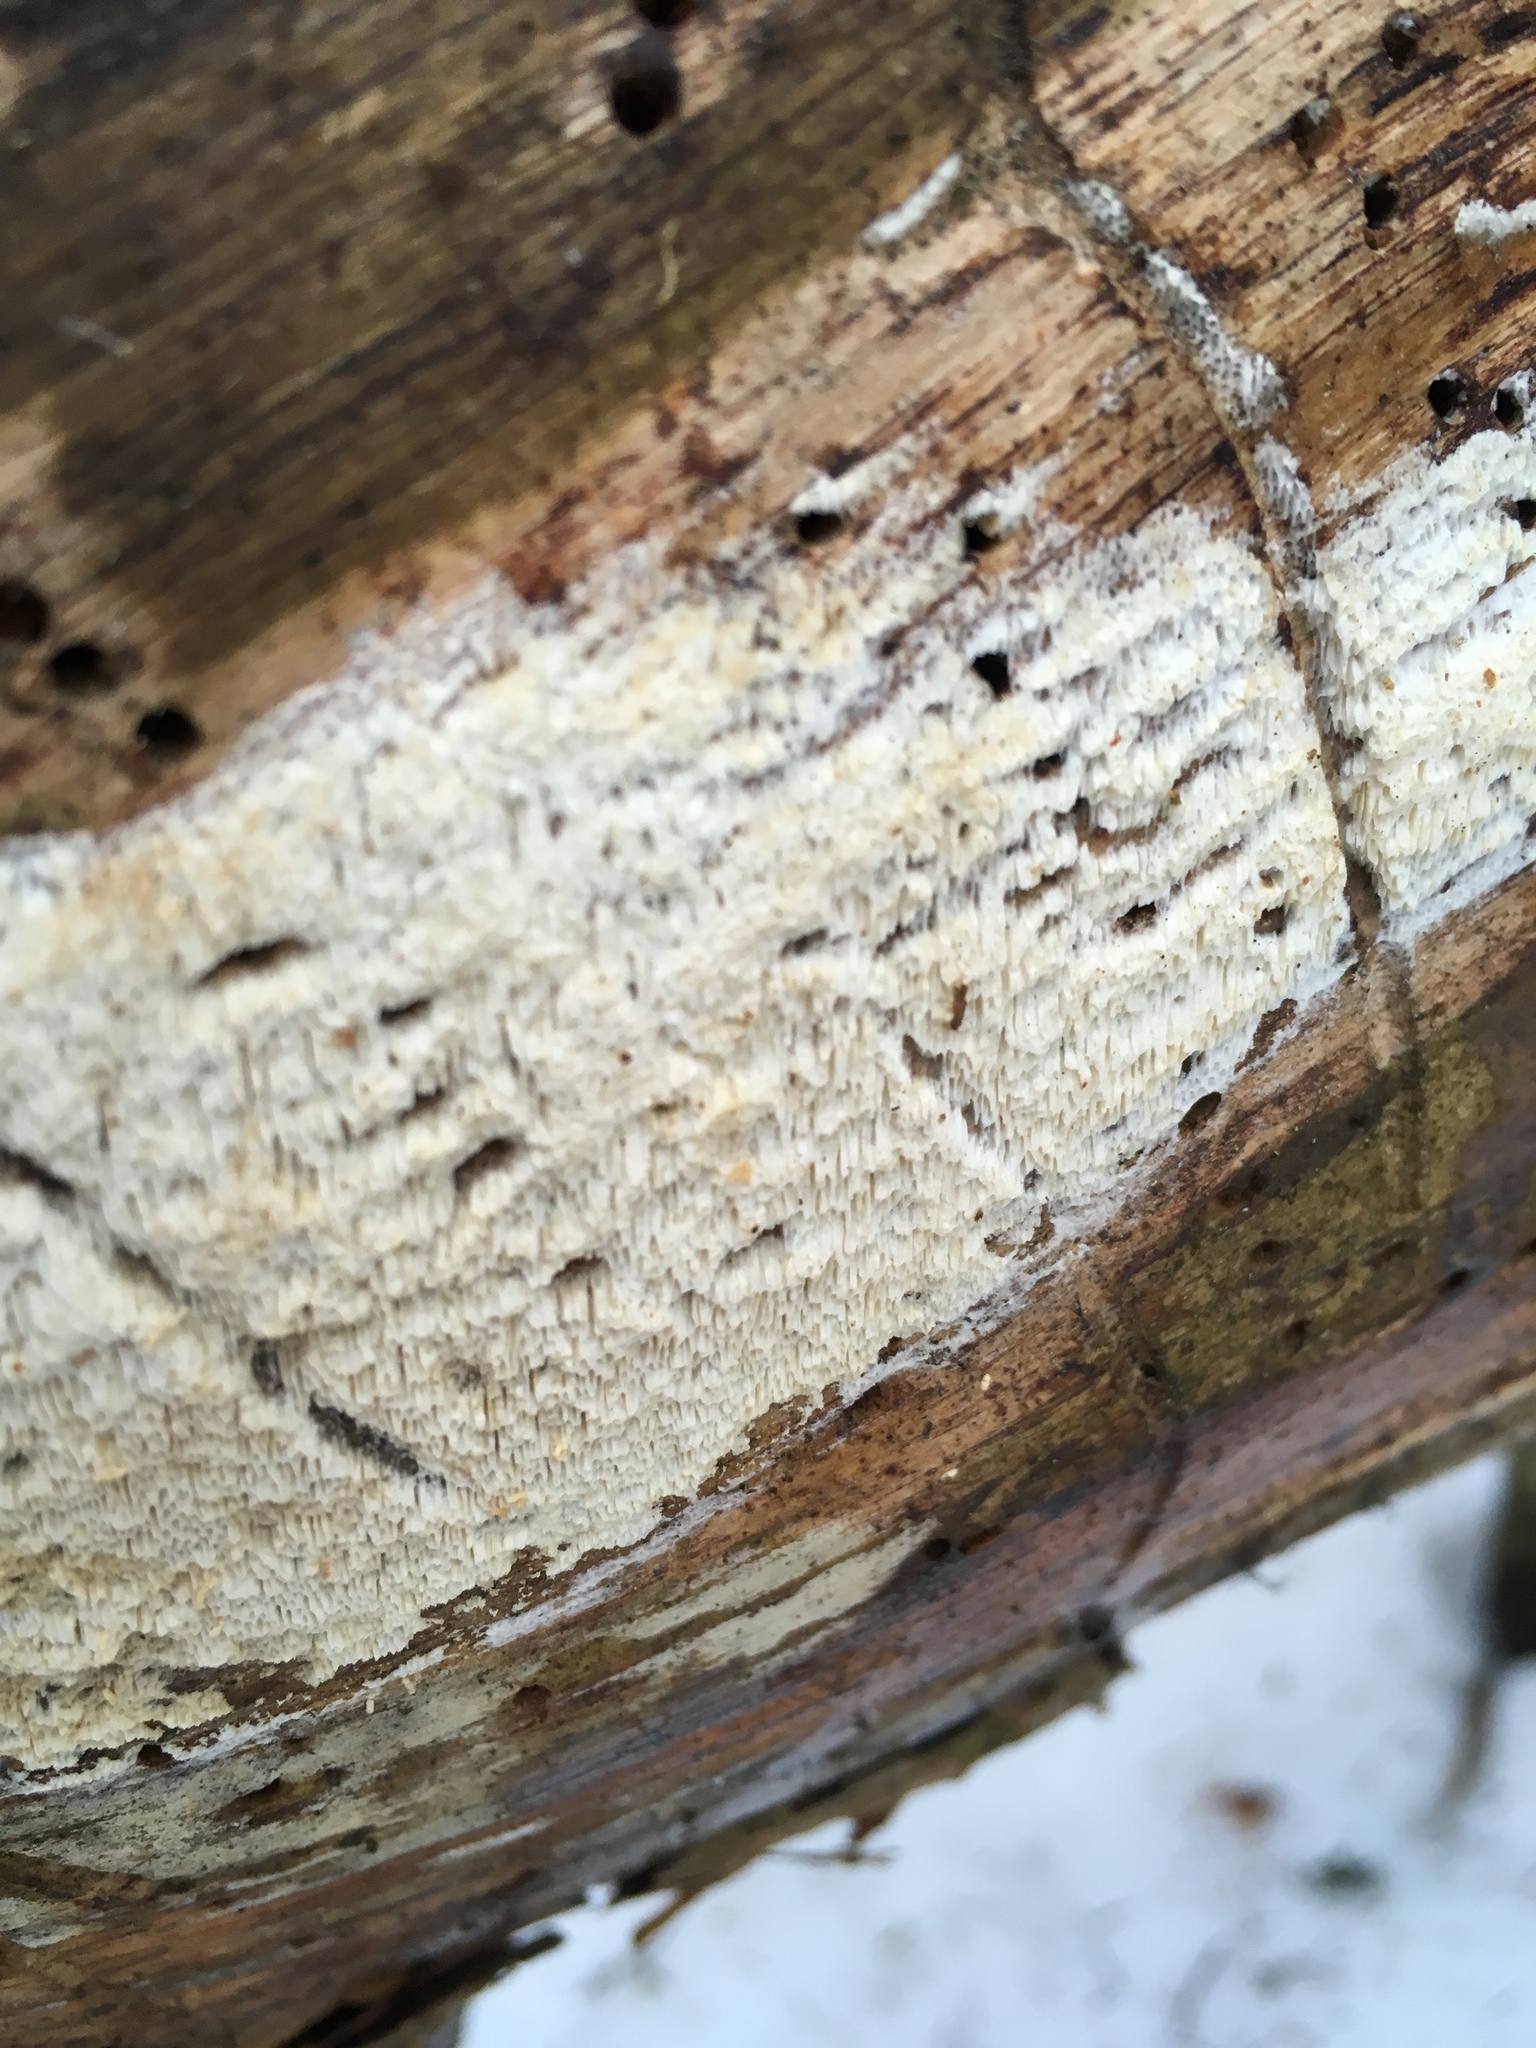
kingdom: Fungi
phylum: Basidiomycota
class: Agaricomycetes
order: Polyporales
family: Fomitopsidaceae
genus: Antrodia
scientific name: Antrodia sinuosa
